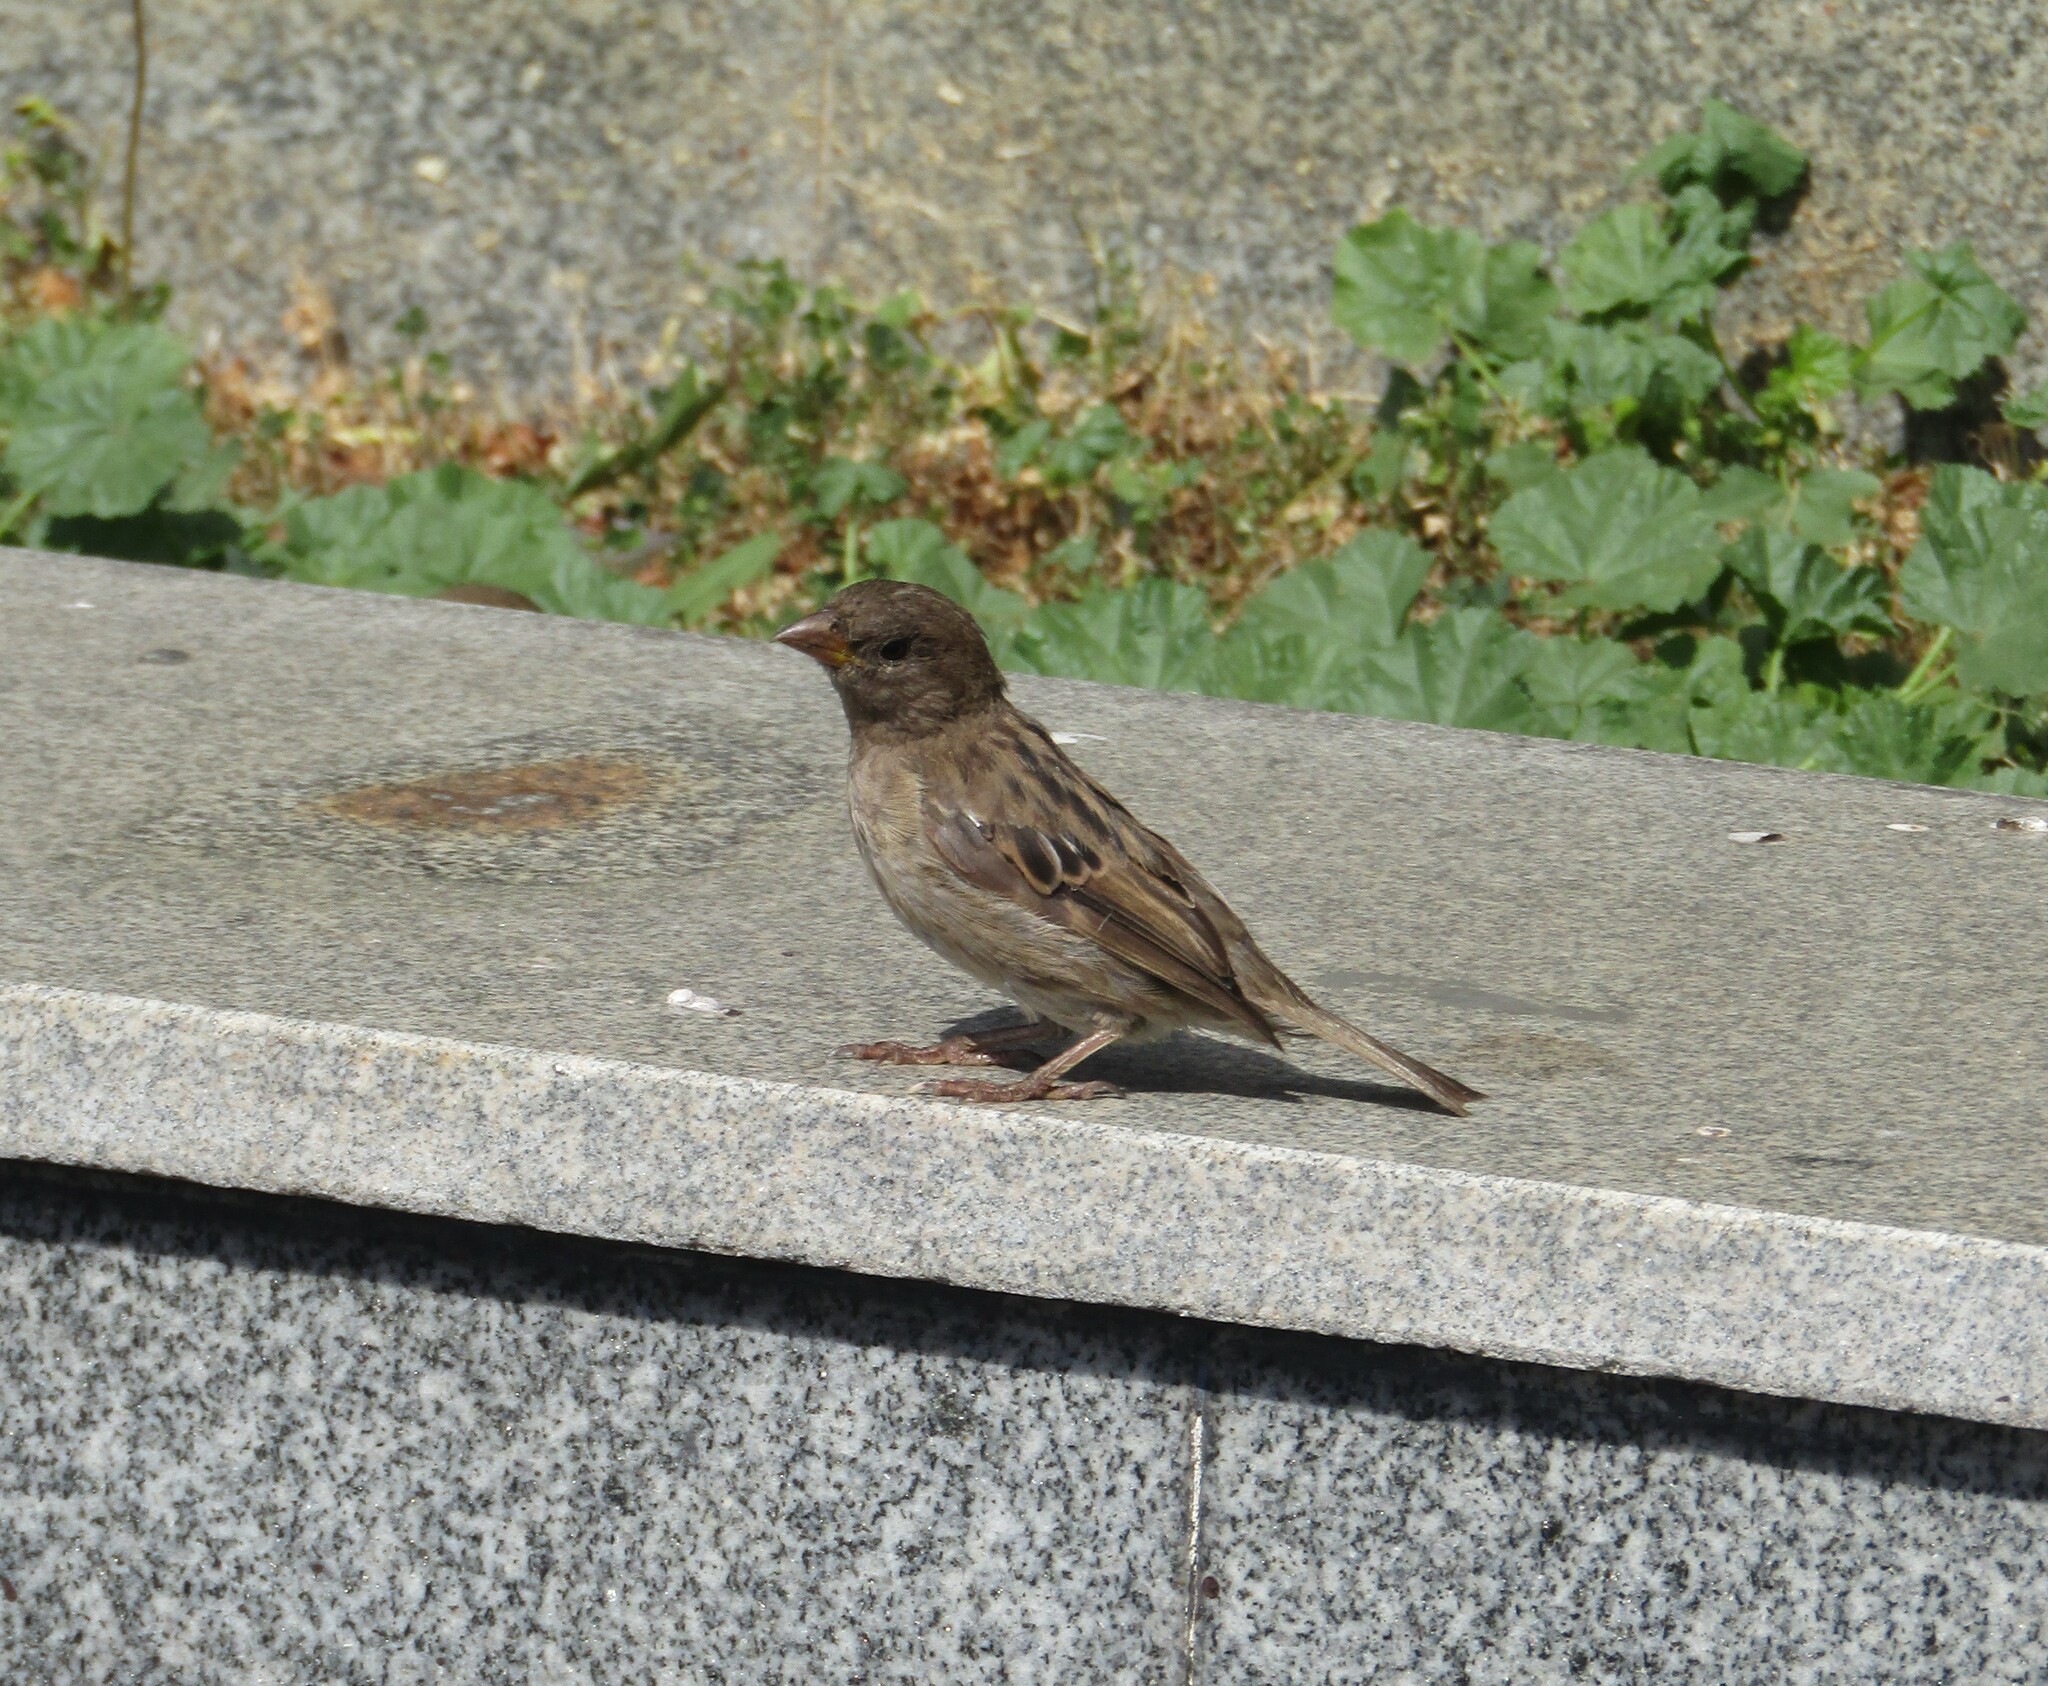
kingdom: Animalia
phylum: Chordata
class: Aves
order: Passeriformes
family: Passeridae
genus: Passer
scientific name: Passer domesticus
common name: House sparrow
